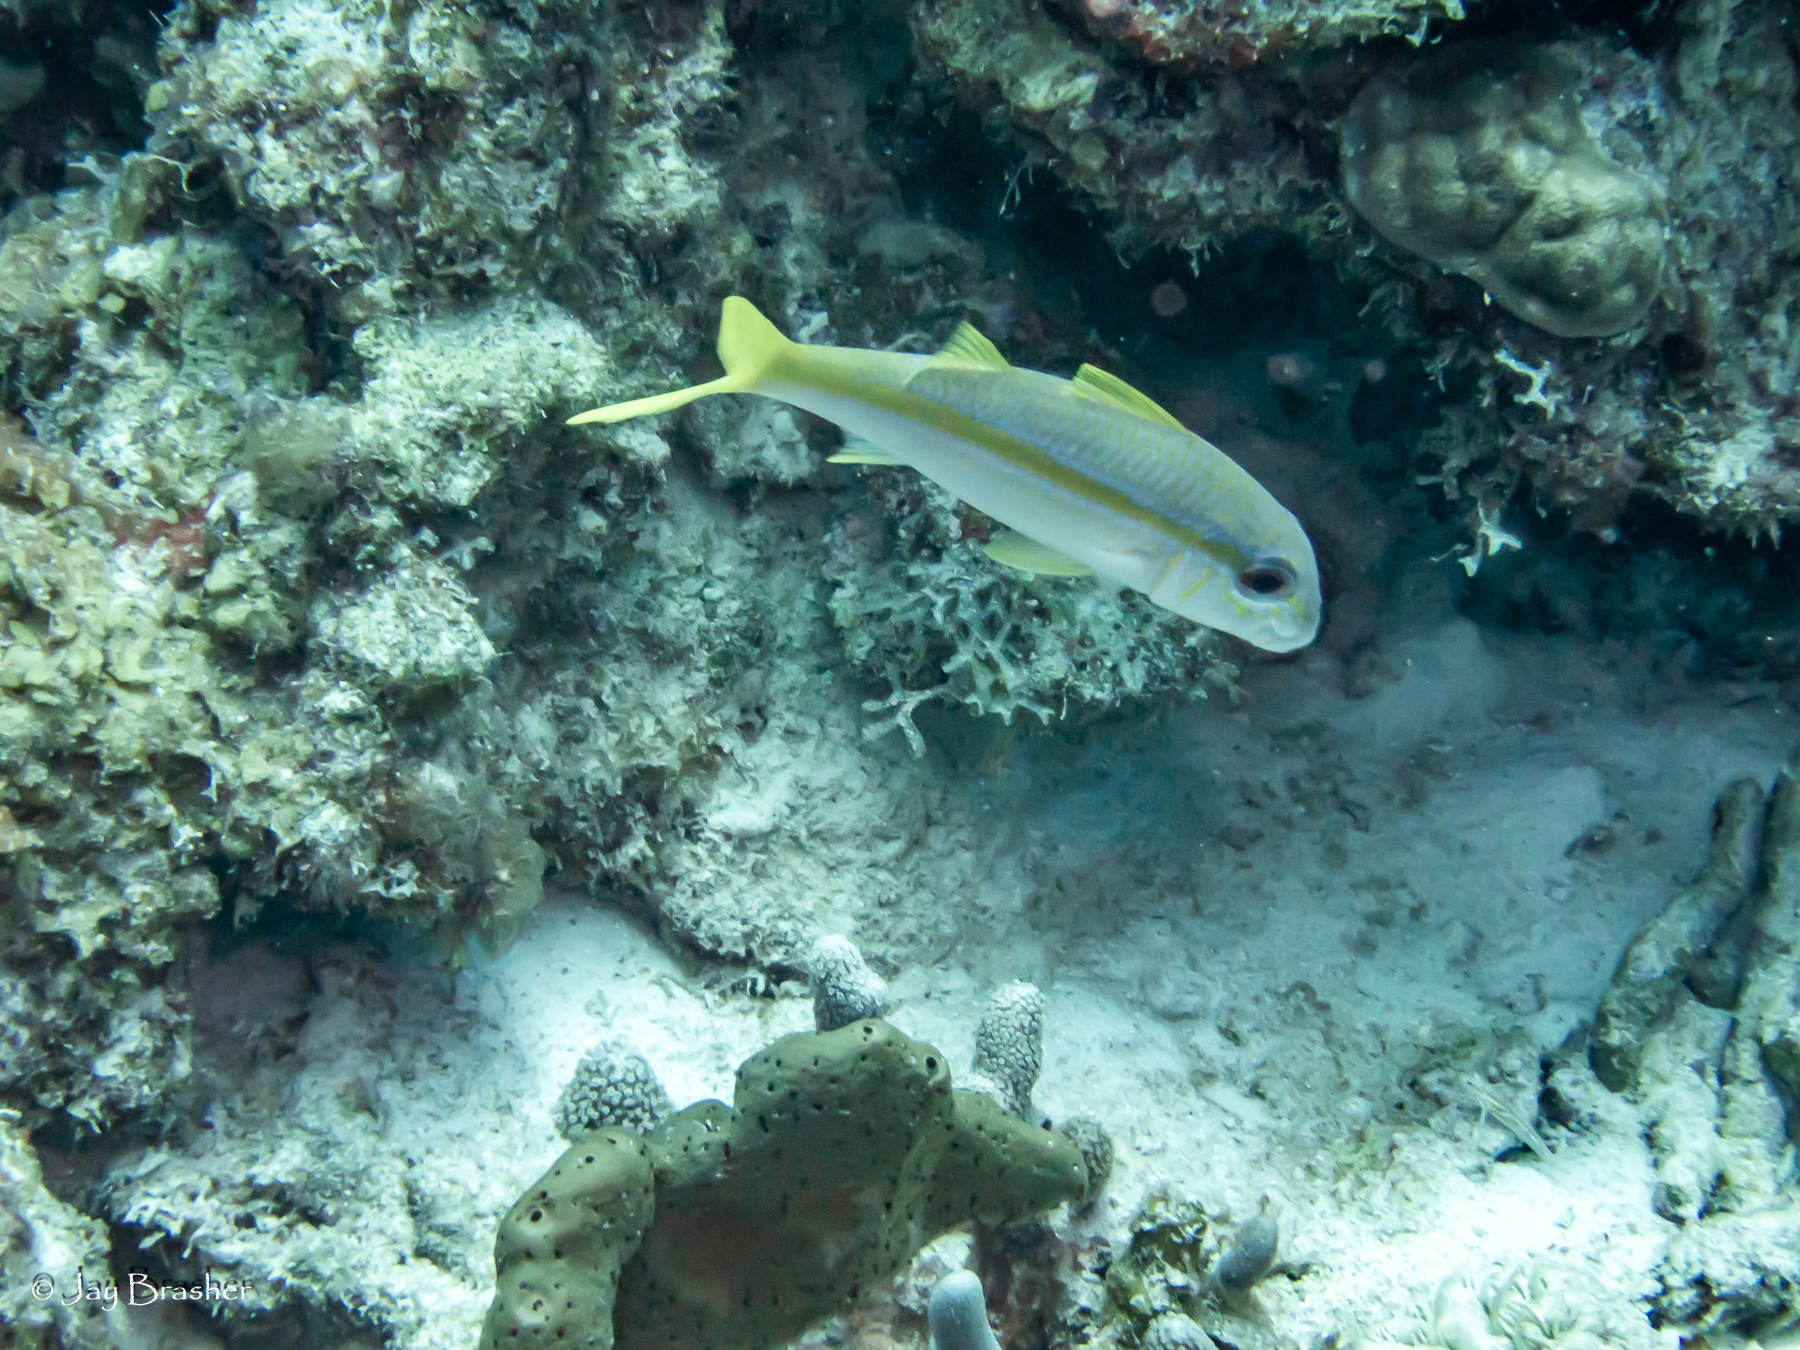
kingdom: Animalia
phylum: Chordata
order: Perciformes
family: Mullidae
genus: Mulloidichthys
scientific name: Mulloidichthys martinicus
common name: Yellow goatfish
